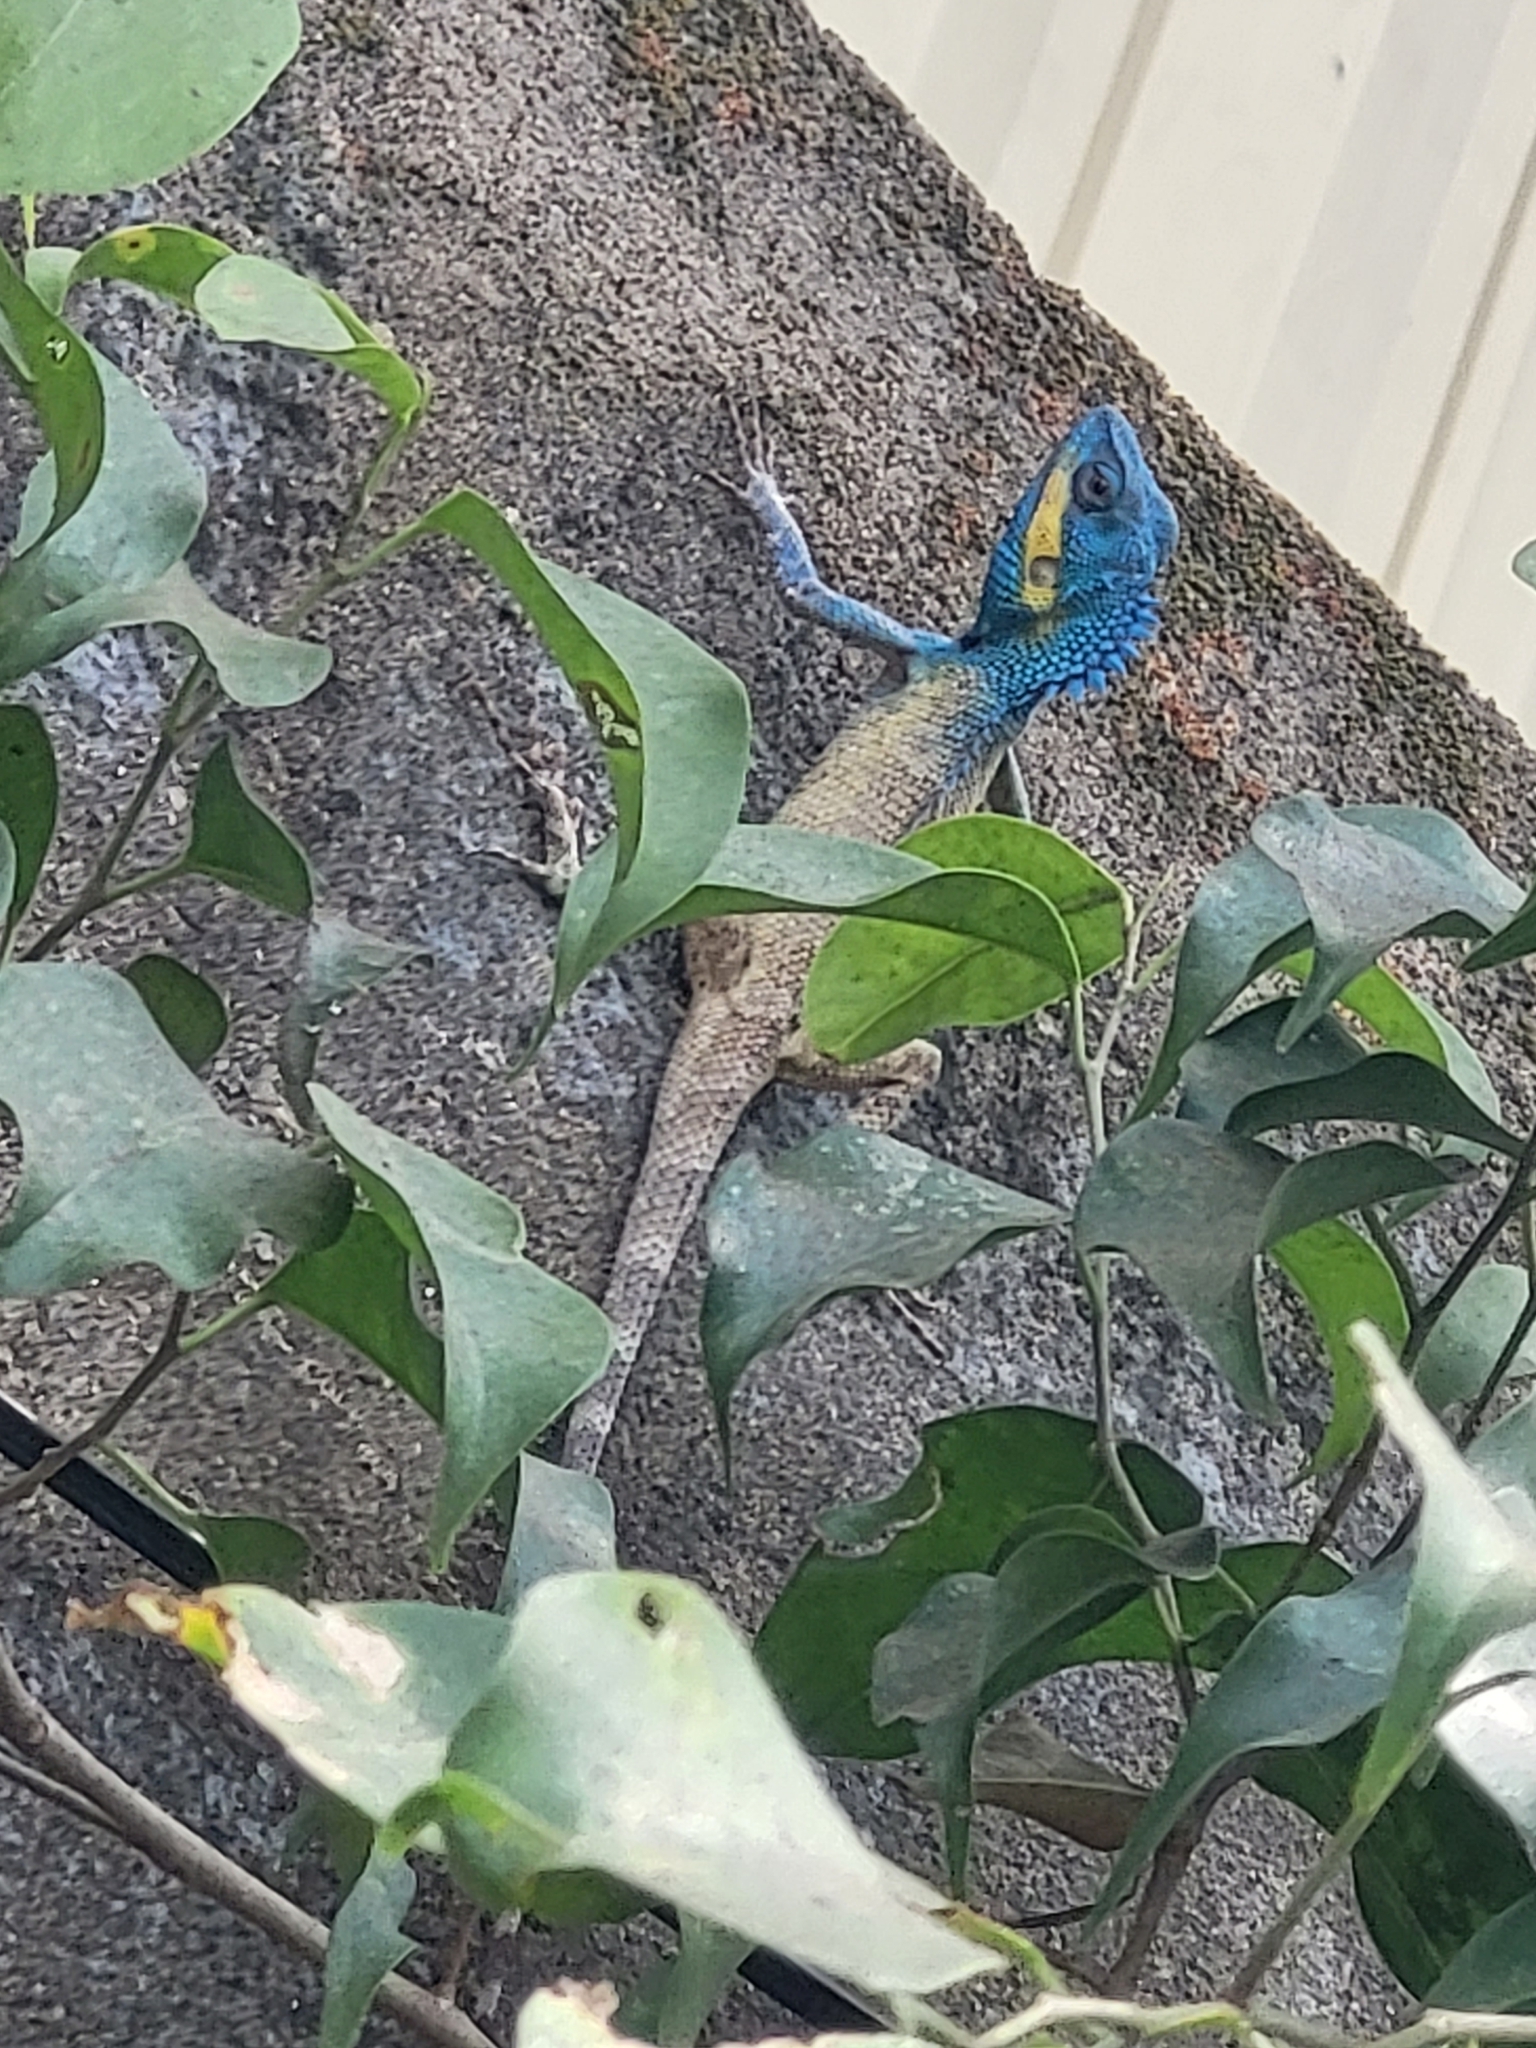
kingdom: Animalia
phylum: Chordata
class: Squamata
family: Agamidae
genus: Calotes
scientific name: Calotes bachae
